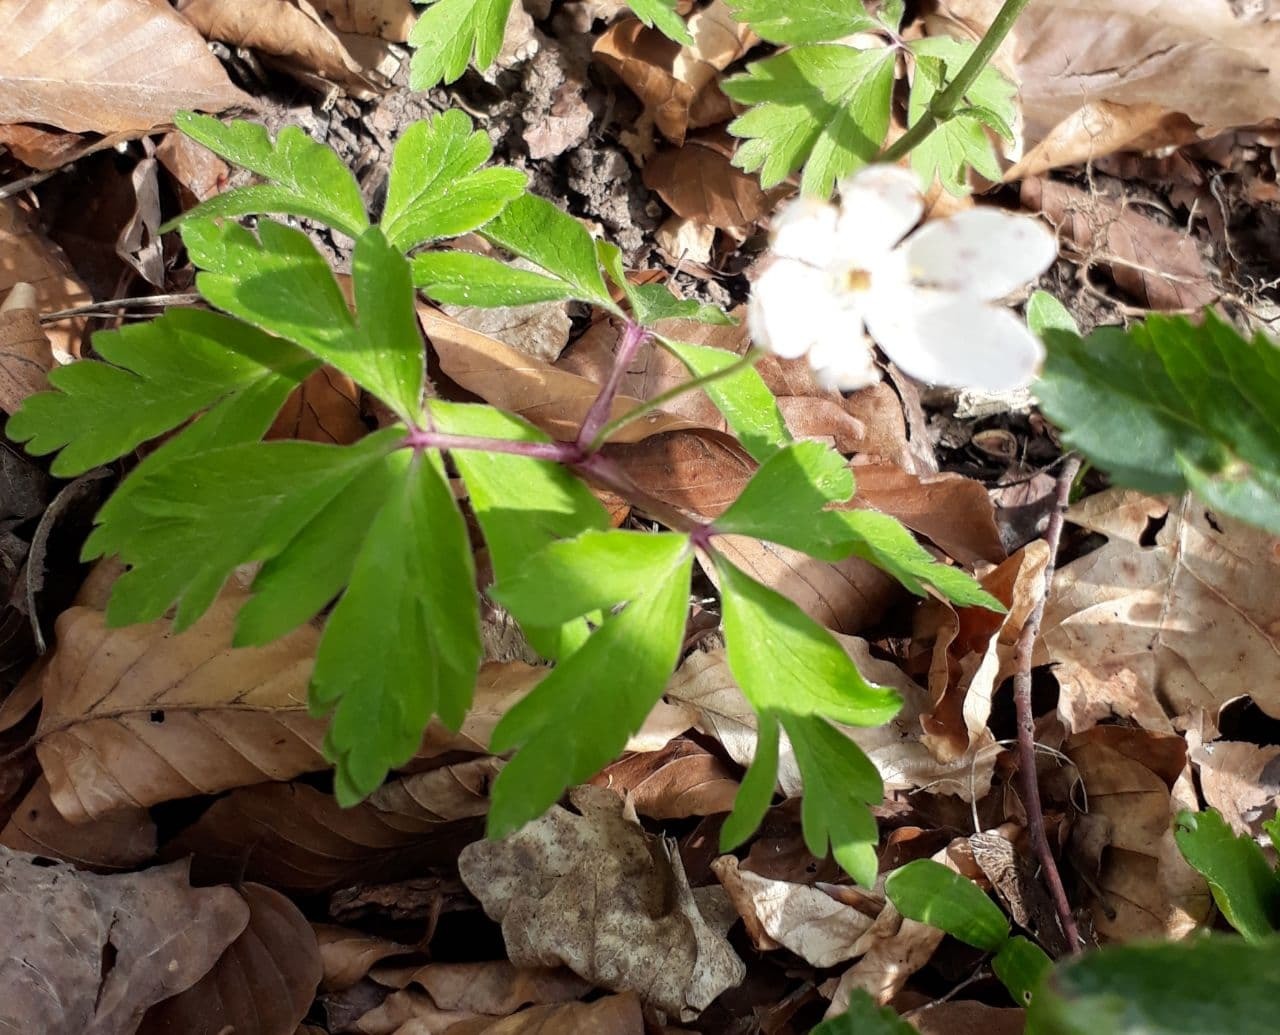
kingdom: Plantae
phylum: Tracheophyta
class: Magnoliopsida
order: Ranunculales
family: Ranunculaceae
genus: Anemone
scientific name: Anemone nemorosa
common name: Wood anemone
